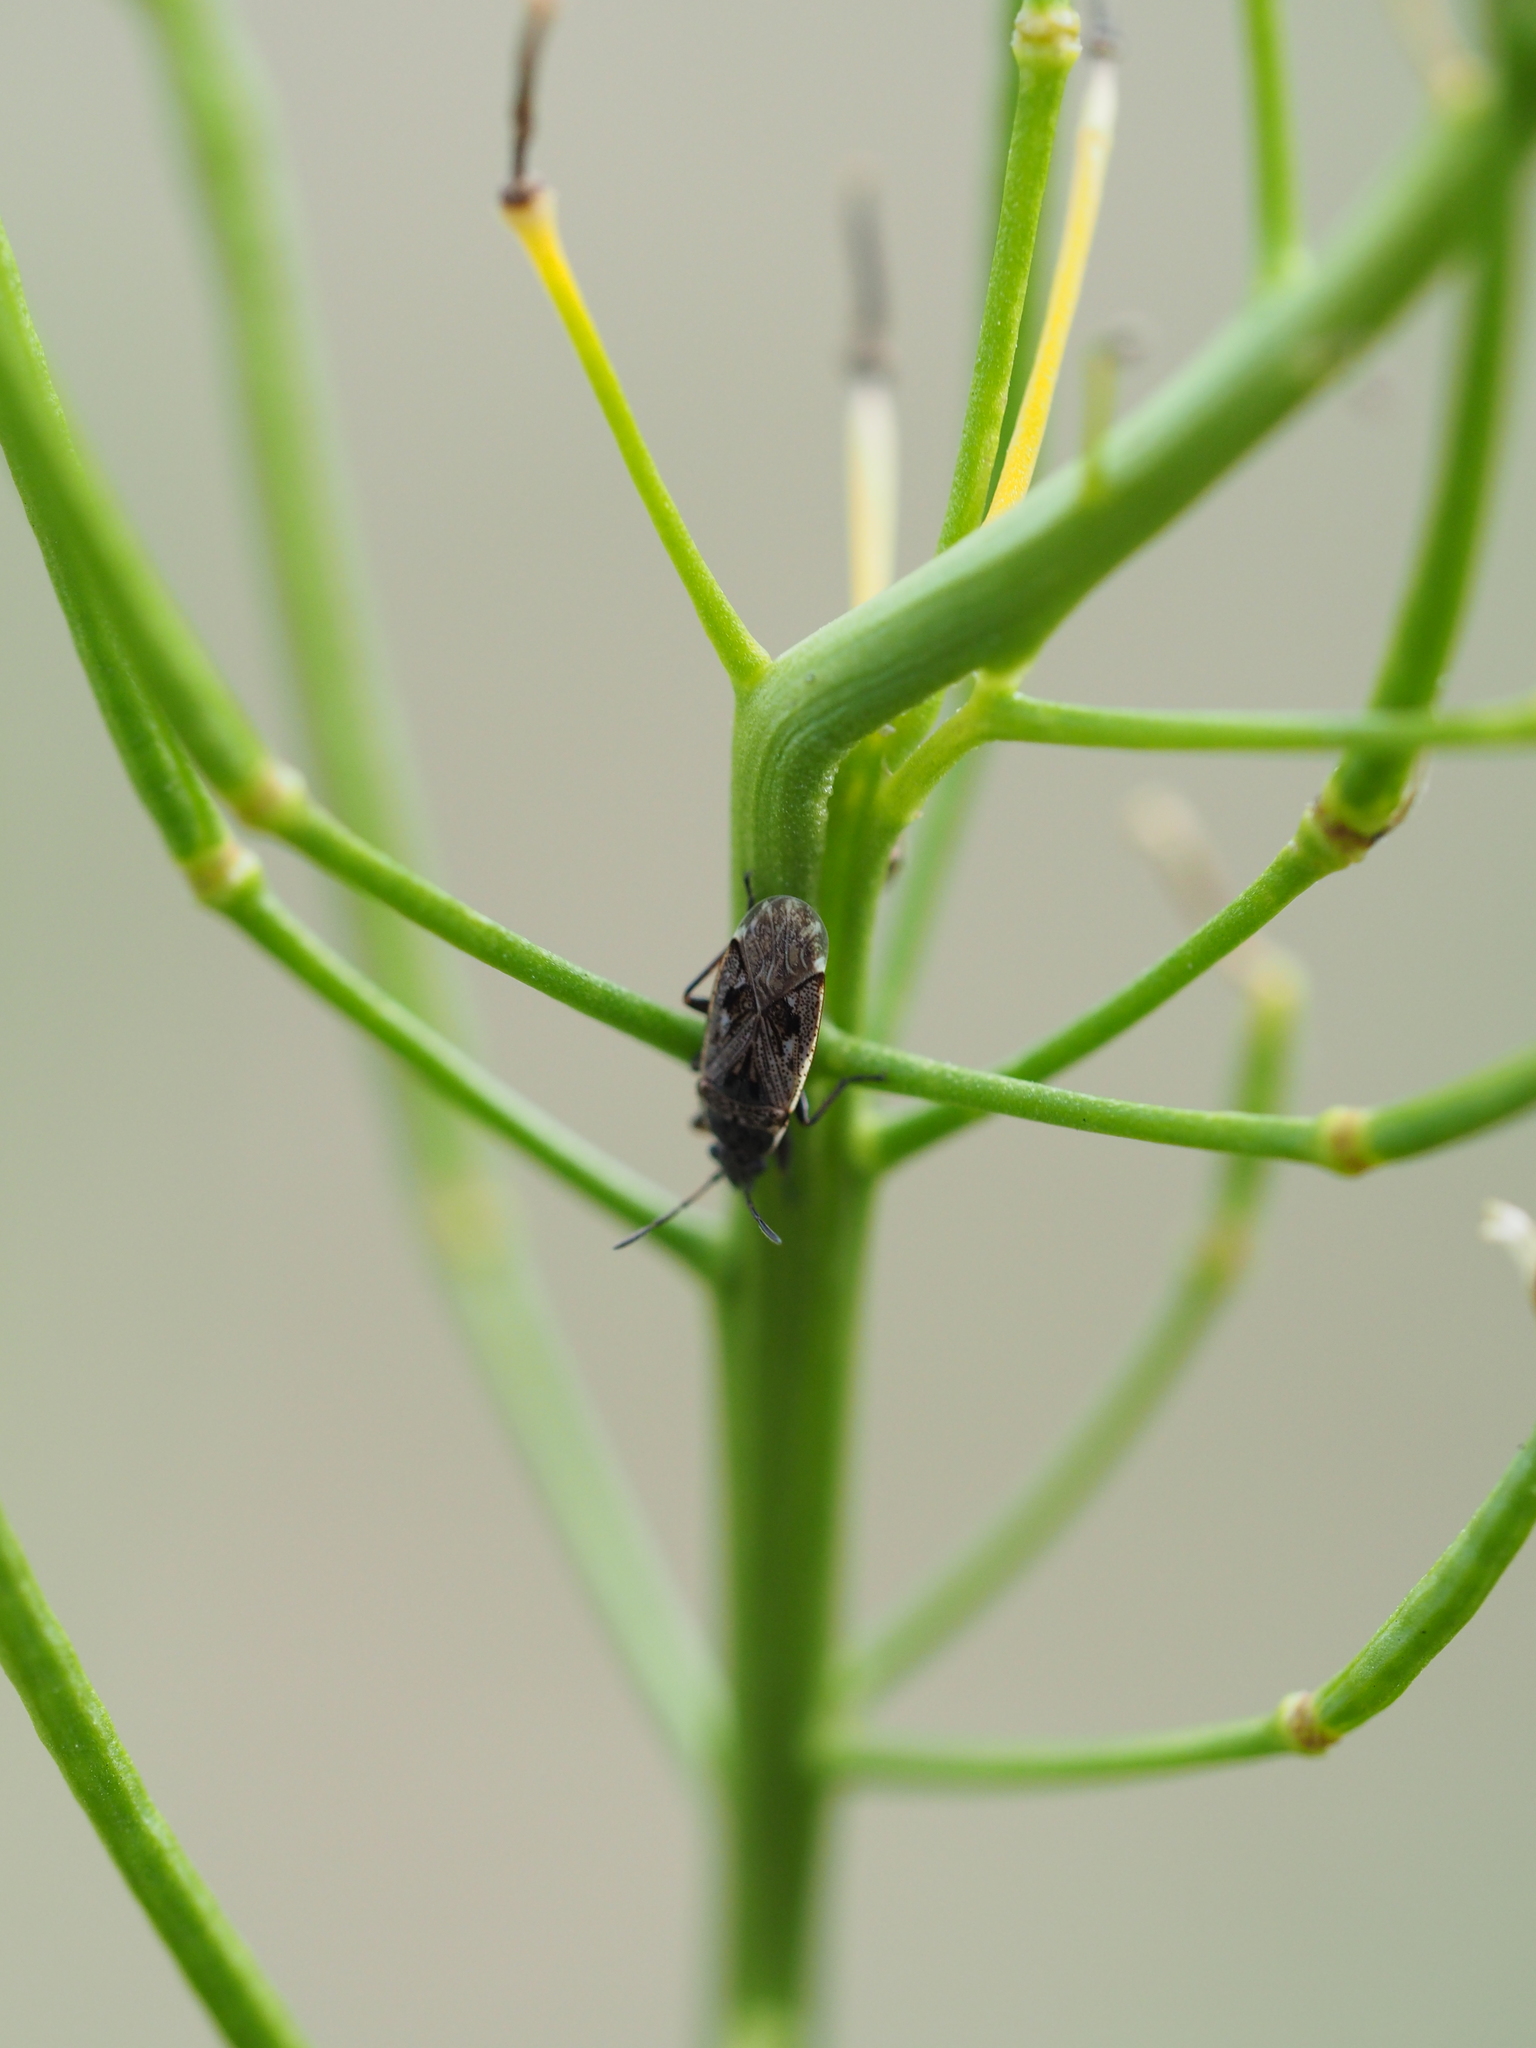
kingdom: Animalia
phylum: Arthropoda
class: Insecta
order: Hemiptera
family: Rhyparochromidae
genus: Sphragisticus
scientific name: Sphragisticus nebulosus
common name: Dirt-colored seed bug
